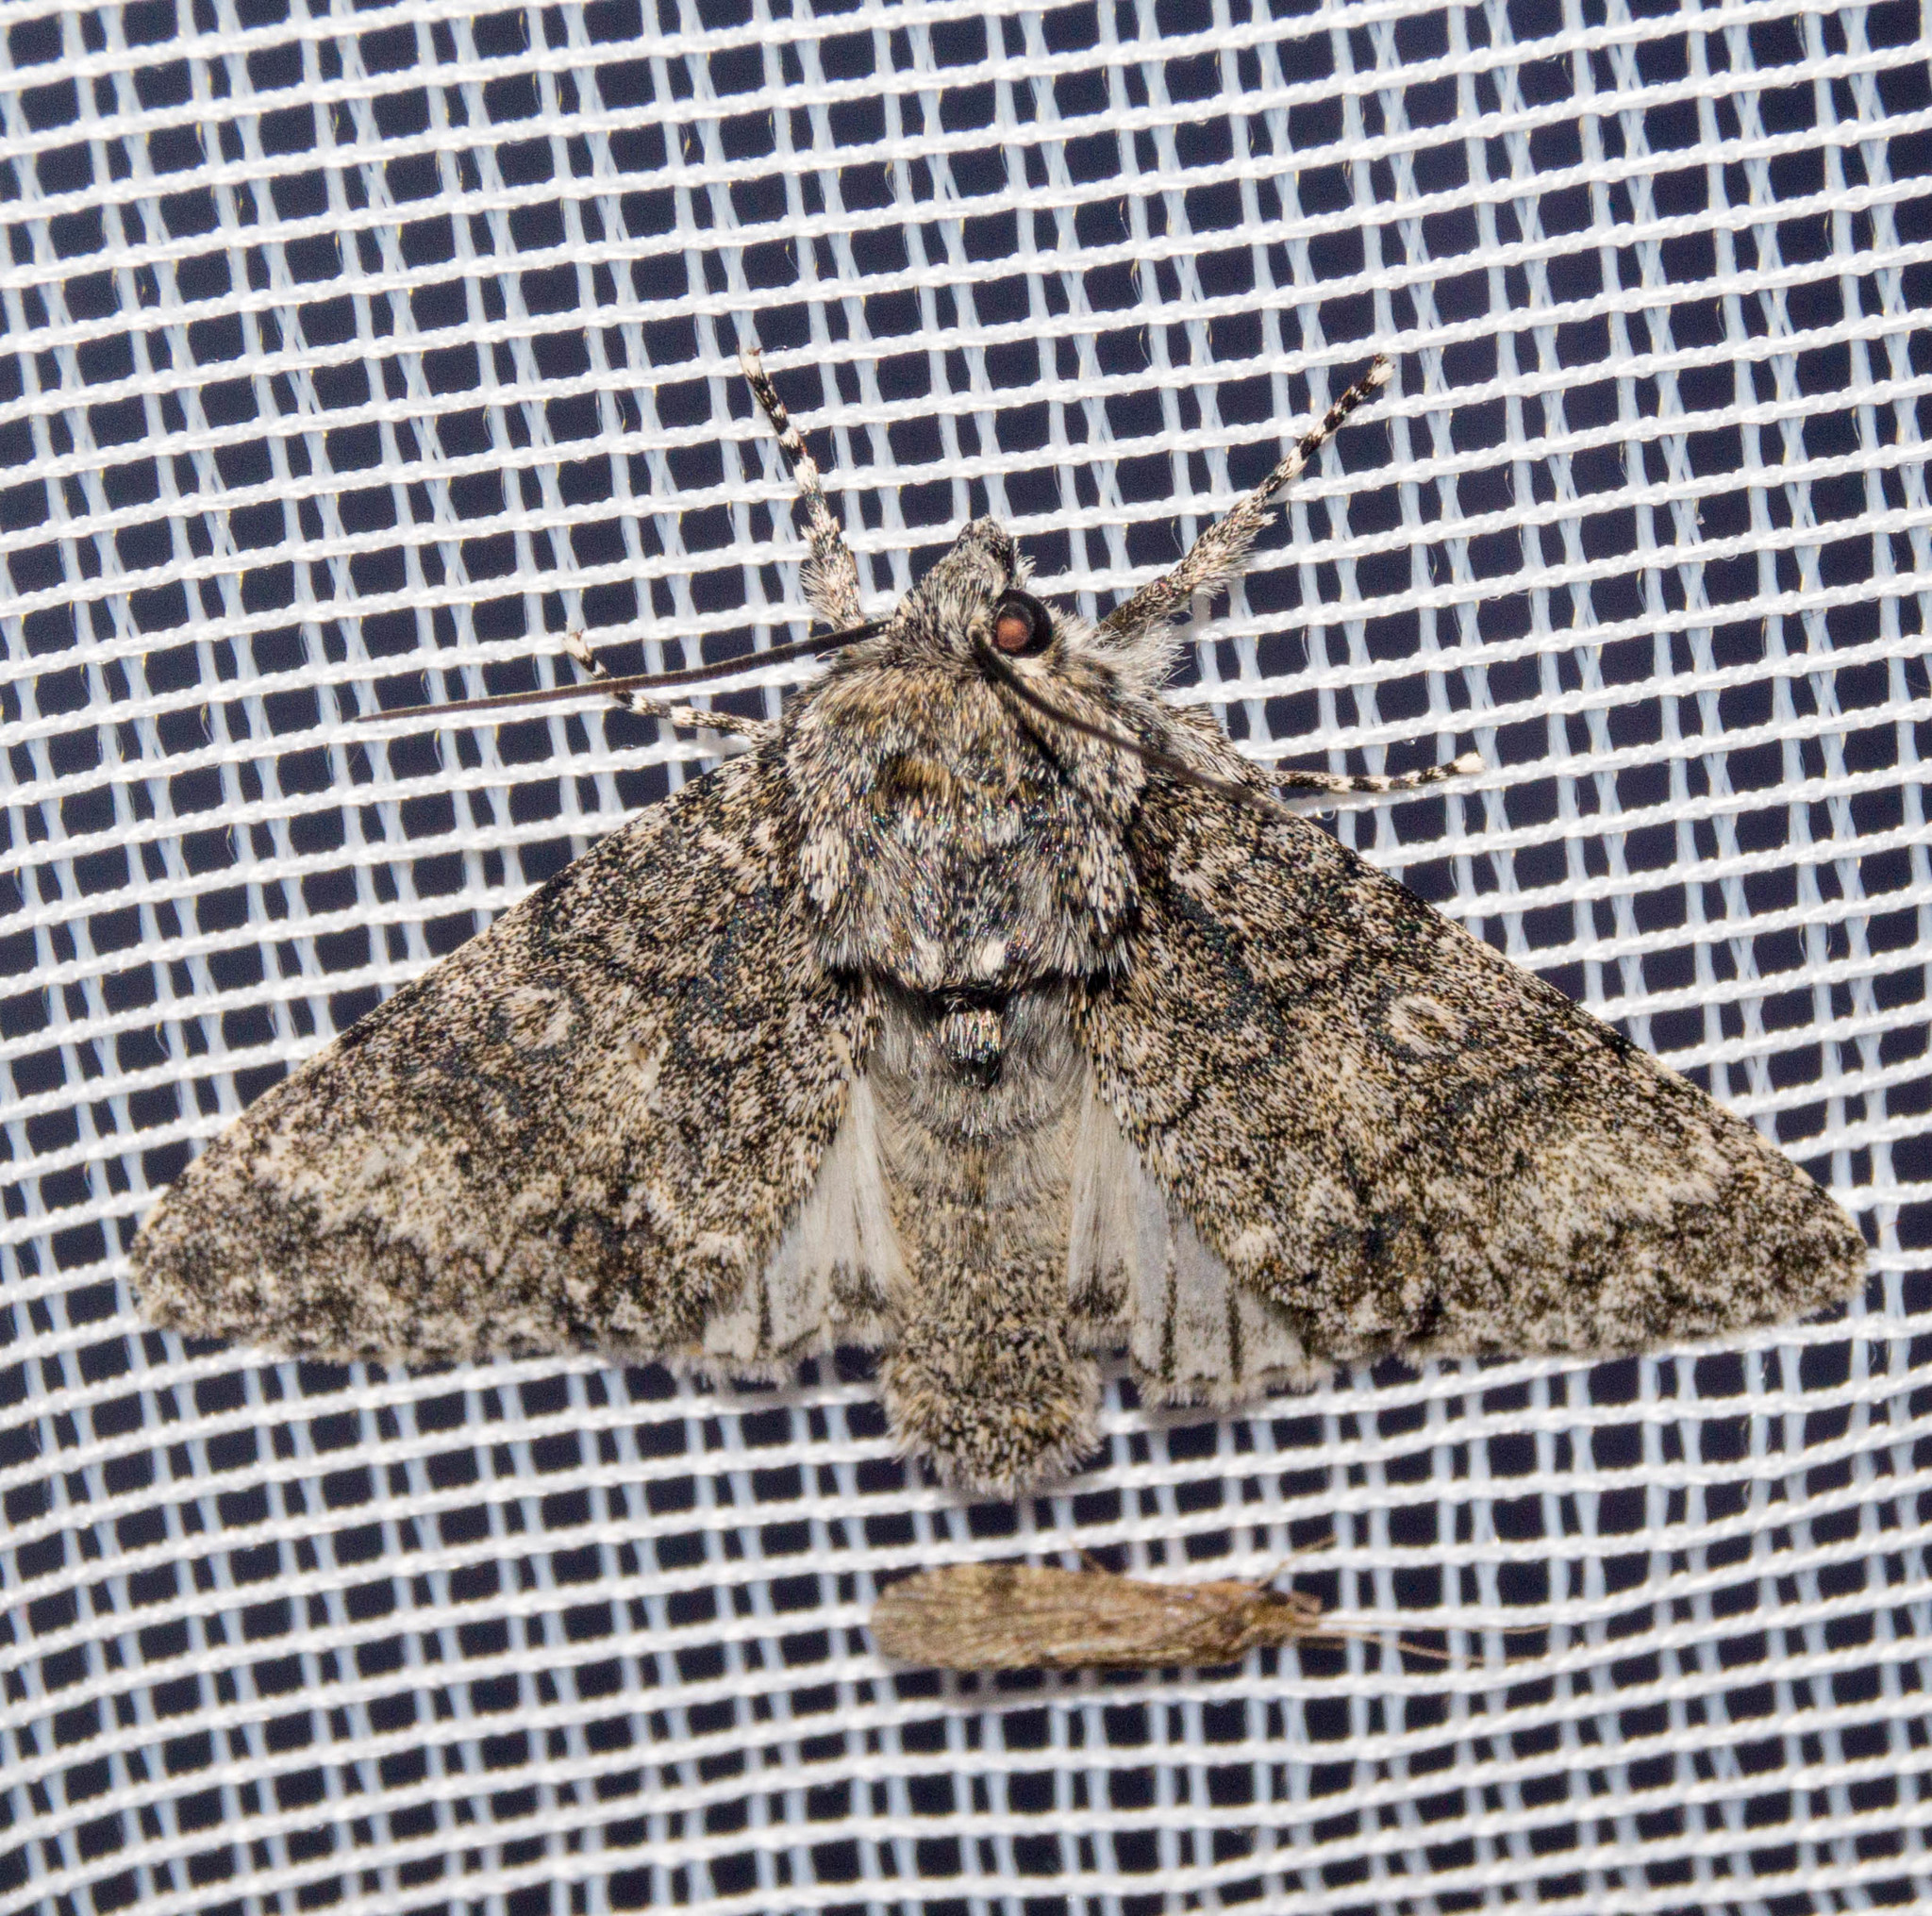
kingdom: Animalia
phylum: Arthropoda
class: Insecta
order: Lepidoptera
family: Noctuidae
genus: Acronicta
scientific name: Acronicta megacephala
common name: Poplar grey
